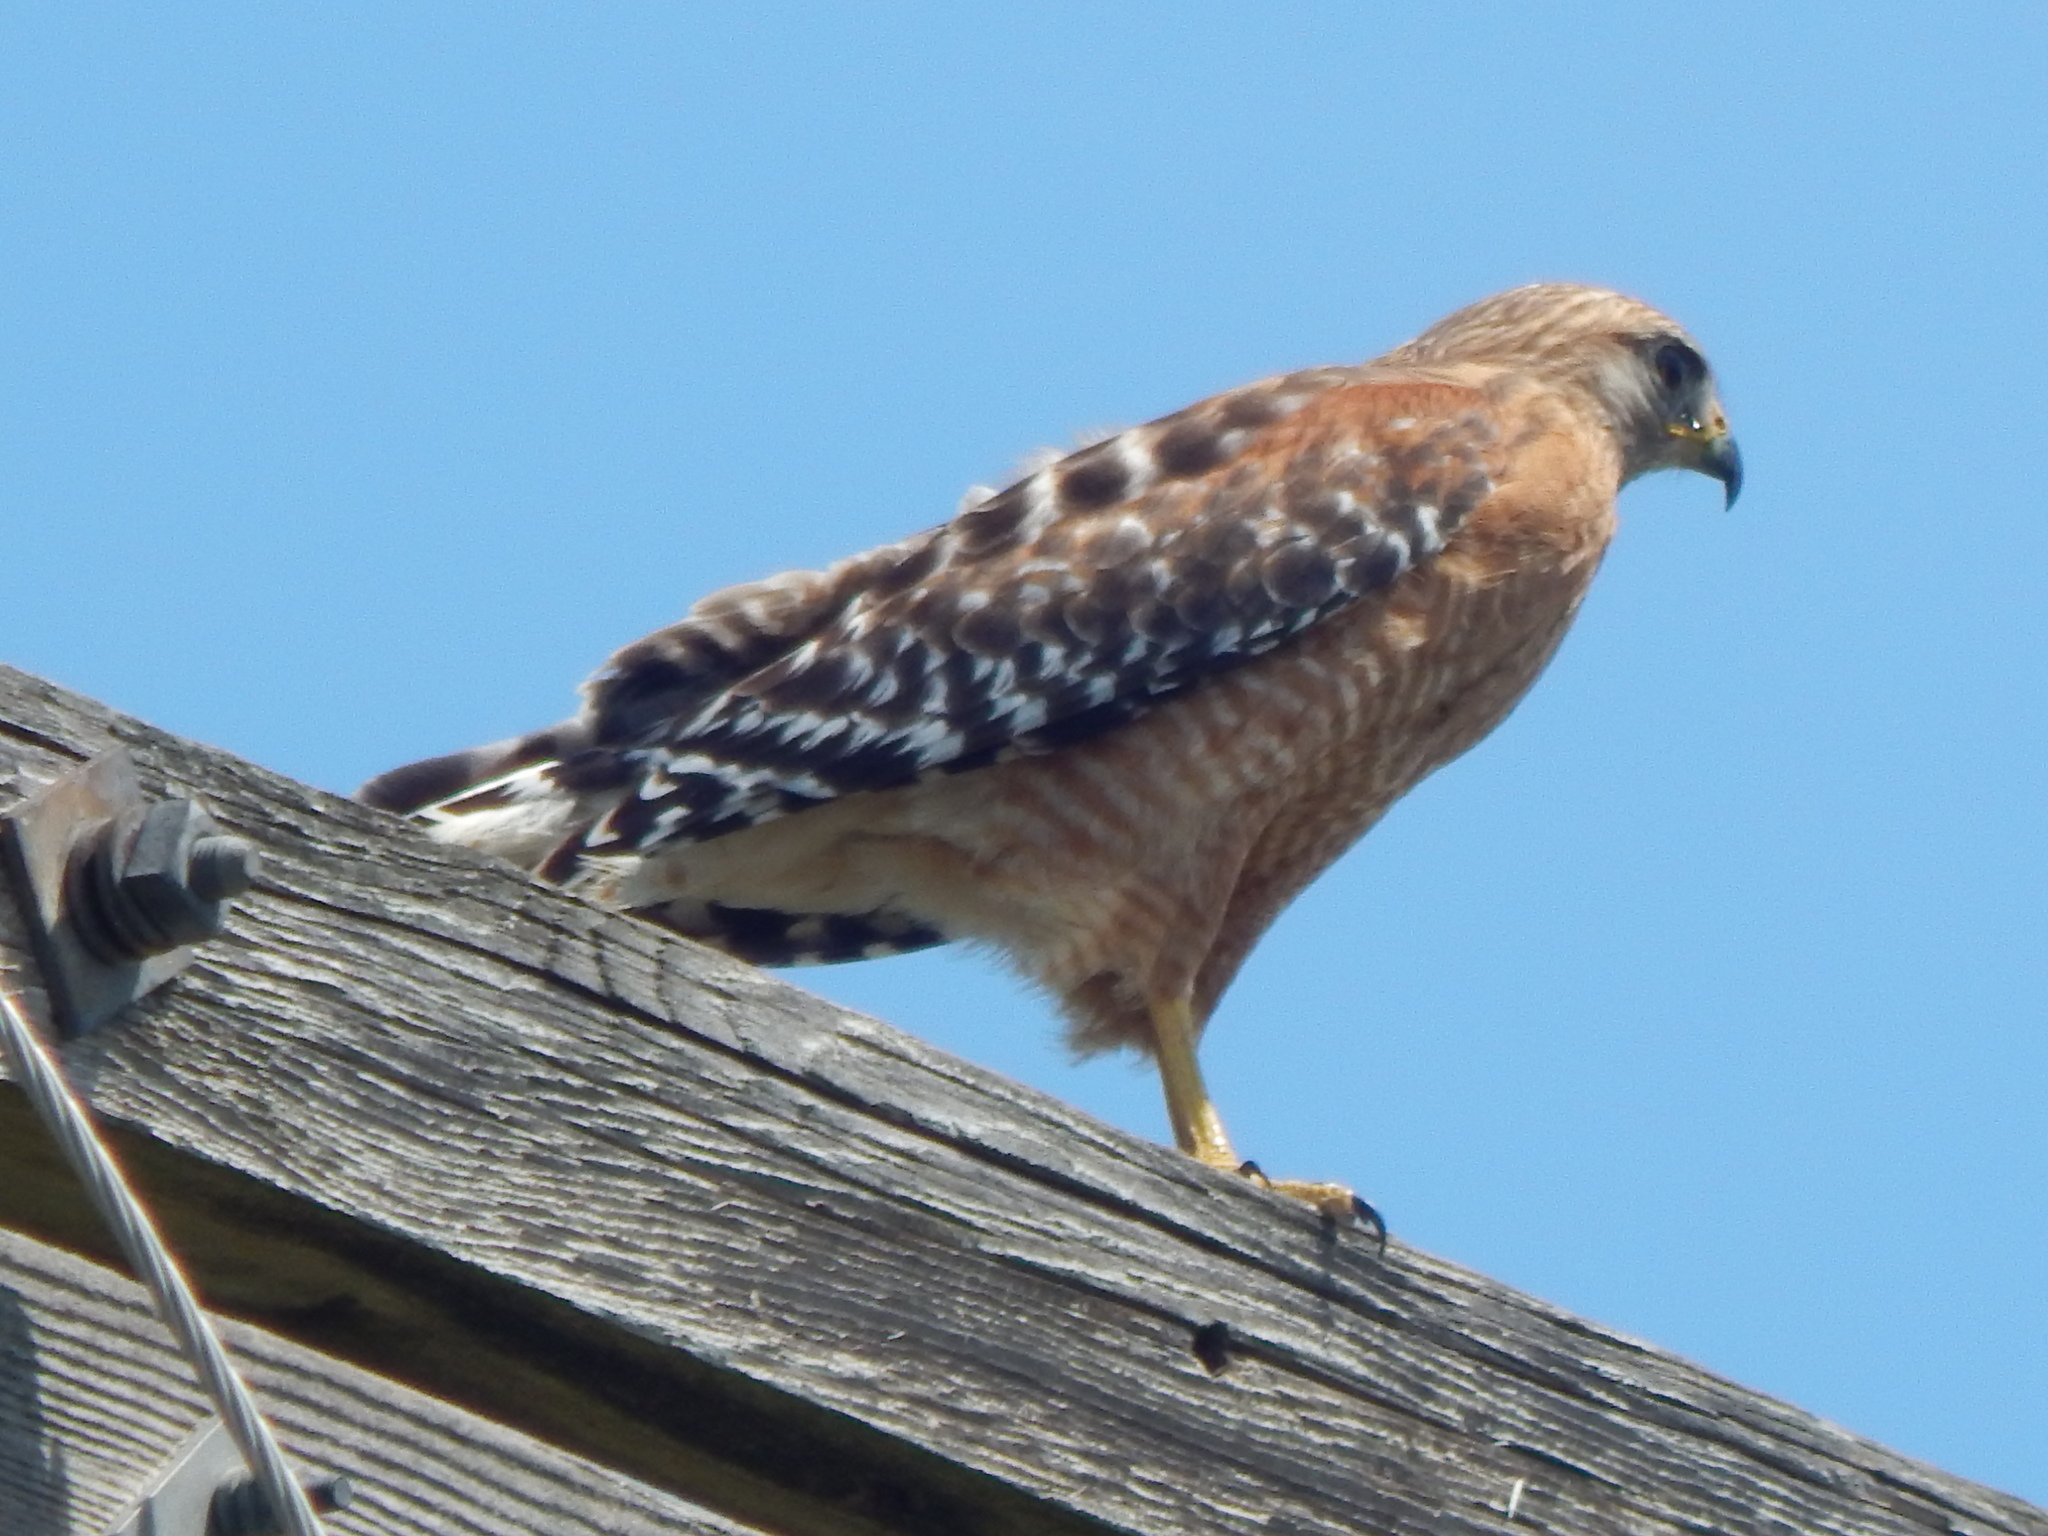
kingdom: Animalia
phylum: Chordata
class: Aves
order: Accipitriformes
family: Accipitridae
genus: Buteo
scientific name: Buteo lineatus
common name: Red-shouldered hawk
